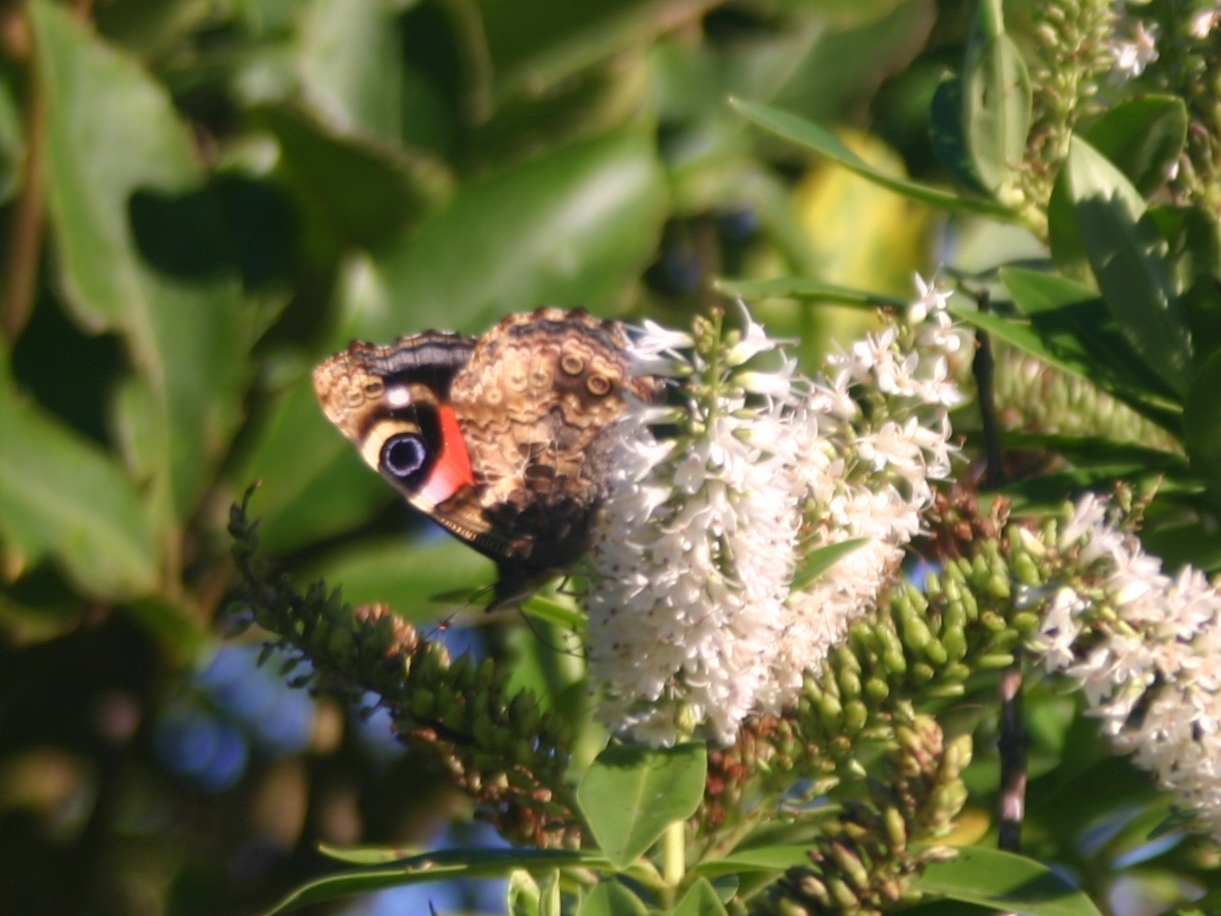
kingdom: Animalia
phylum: Arthropoda
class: Insecta
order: Lepidoptera
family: Nymphalidae
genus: Vanessa
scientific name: Vanessa gonerilla
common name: New zealand red admiral
